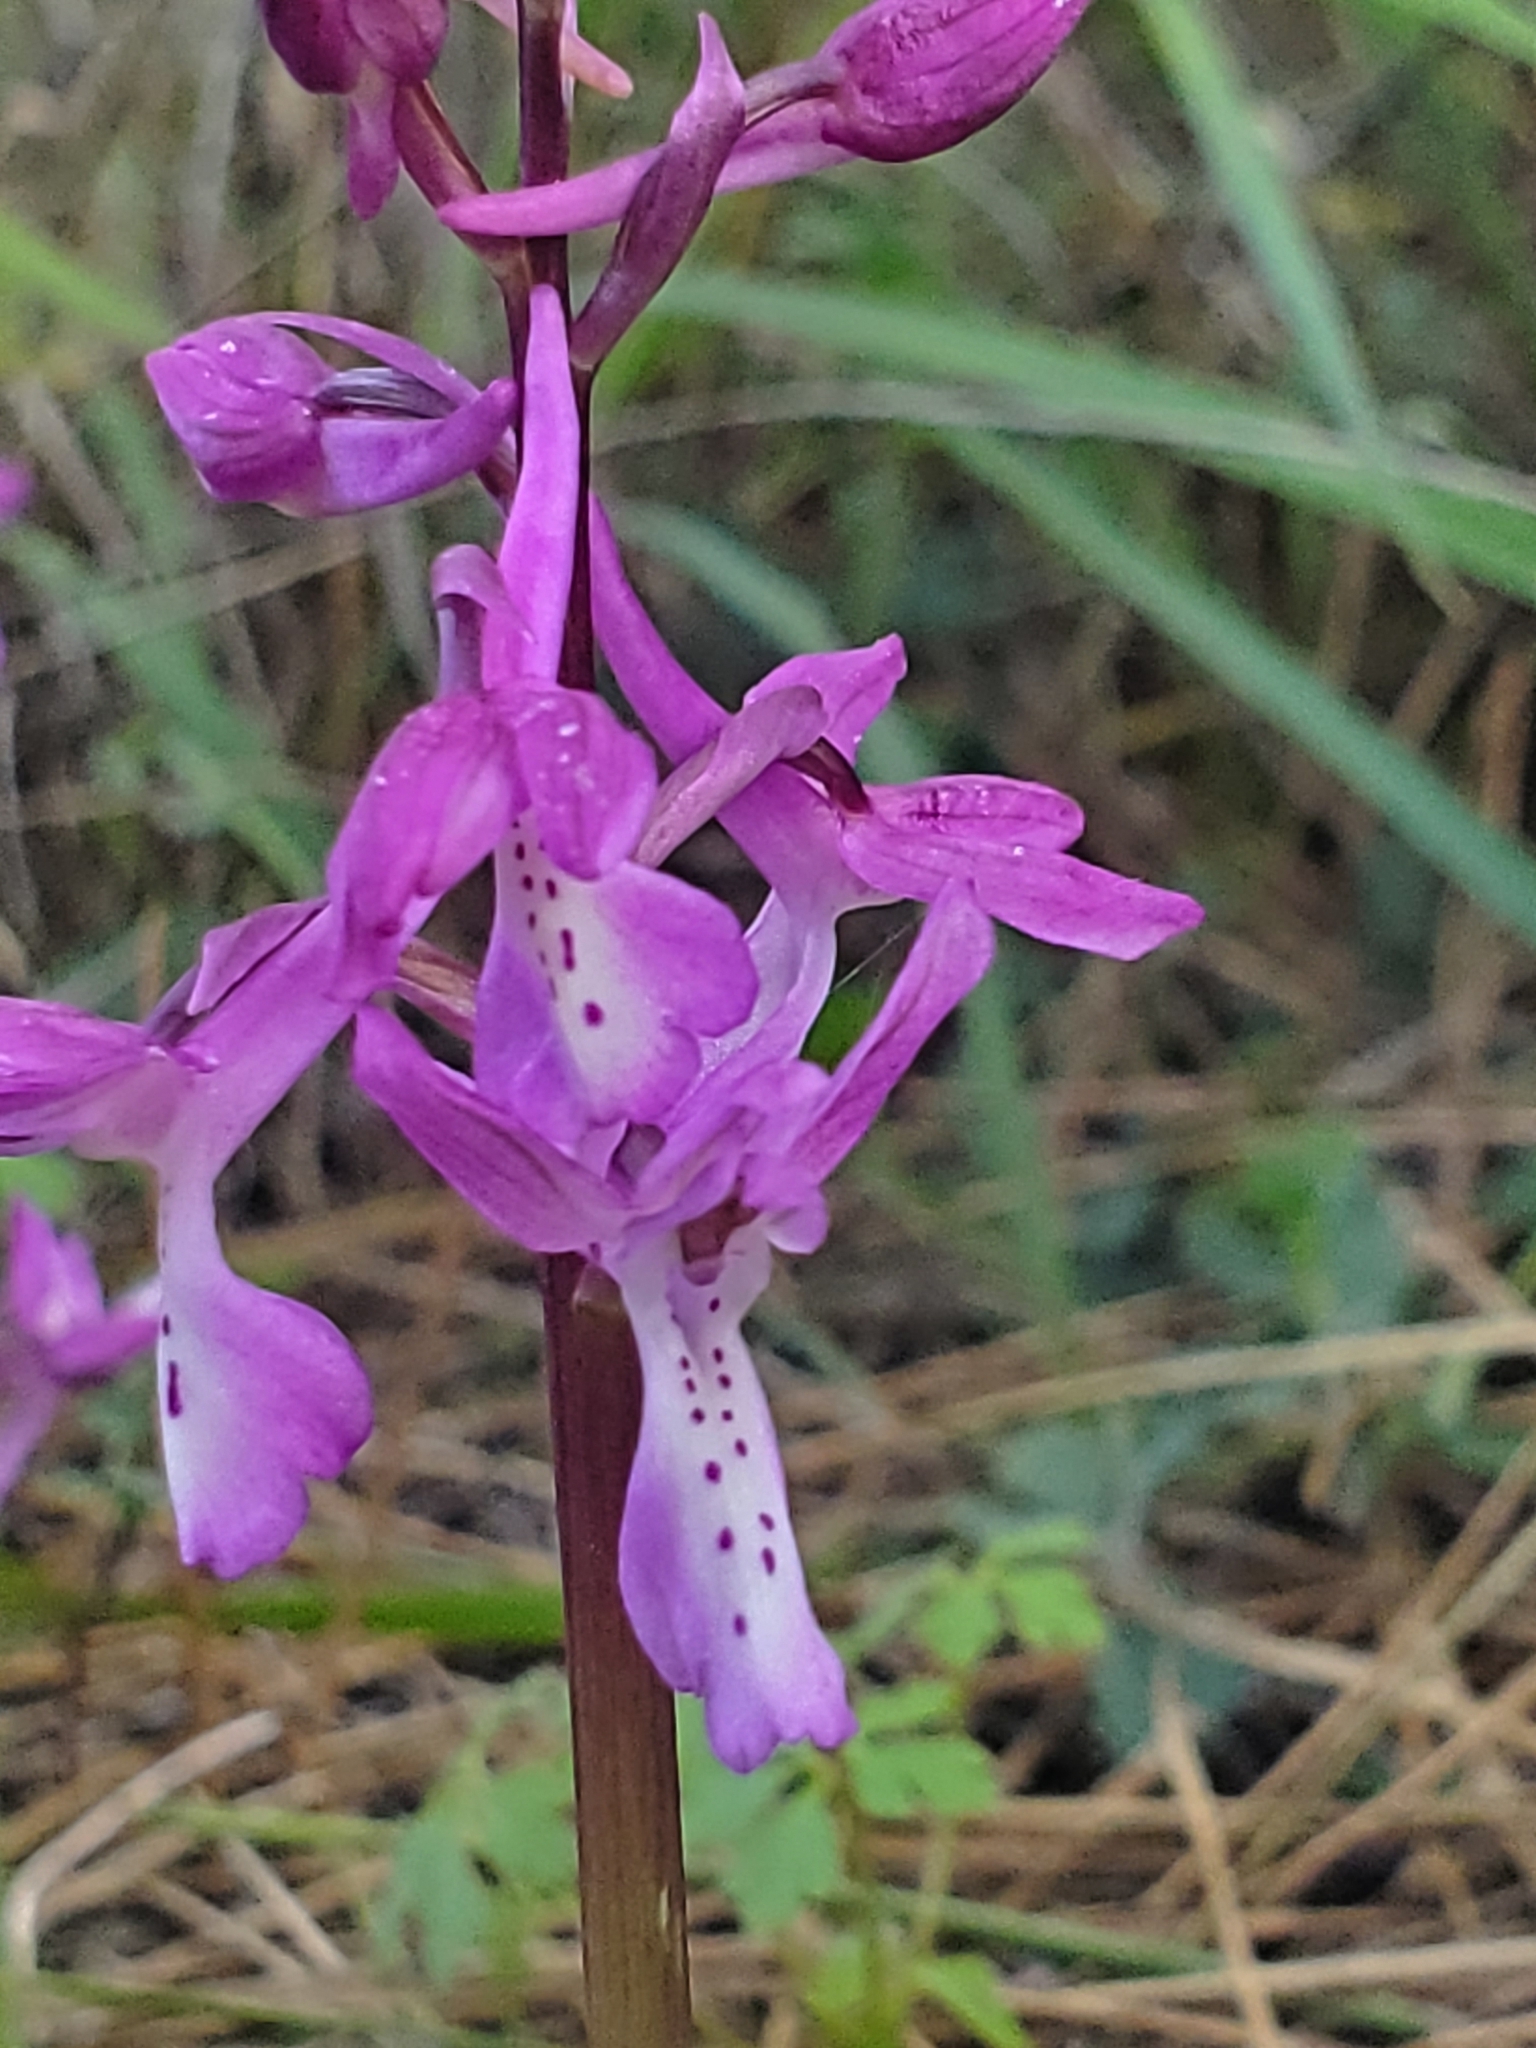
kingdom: Plantae
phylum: Tracheophyta
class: Liliopsida
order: Asparagales
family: Orchidaceae
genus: Orchis
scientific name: Orchis anatolica
